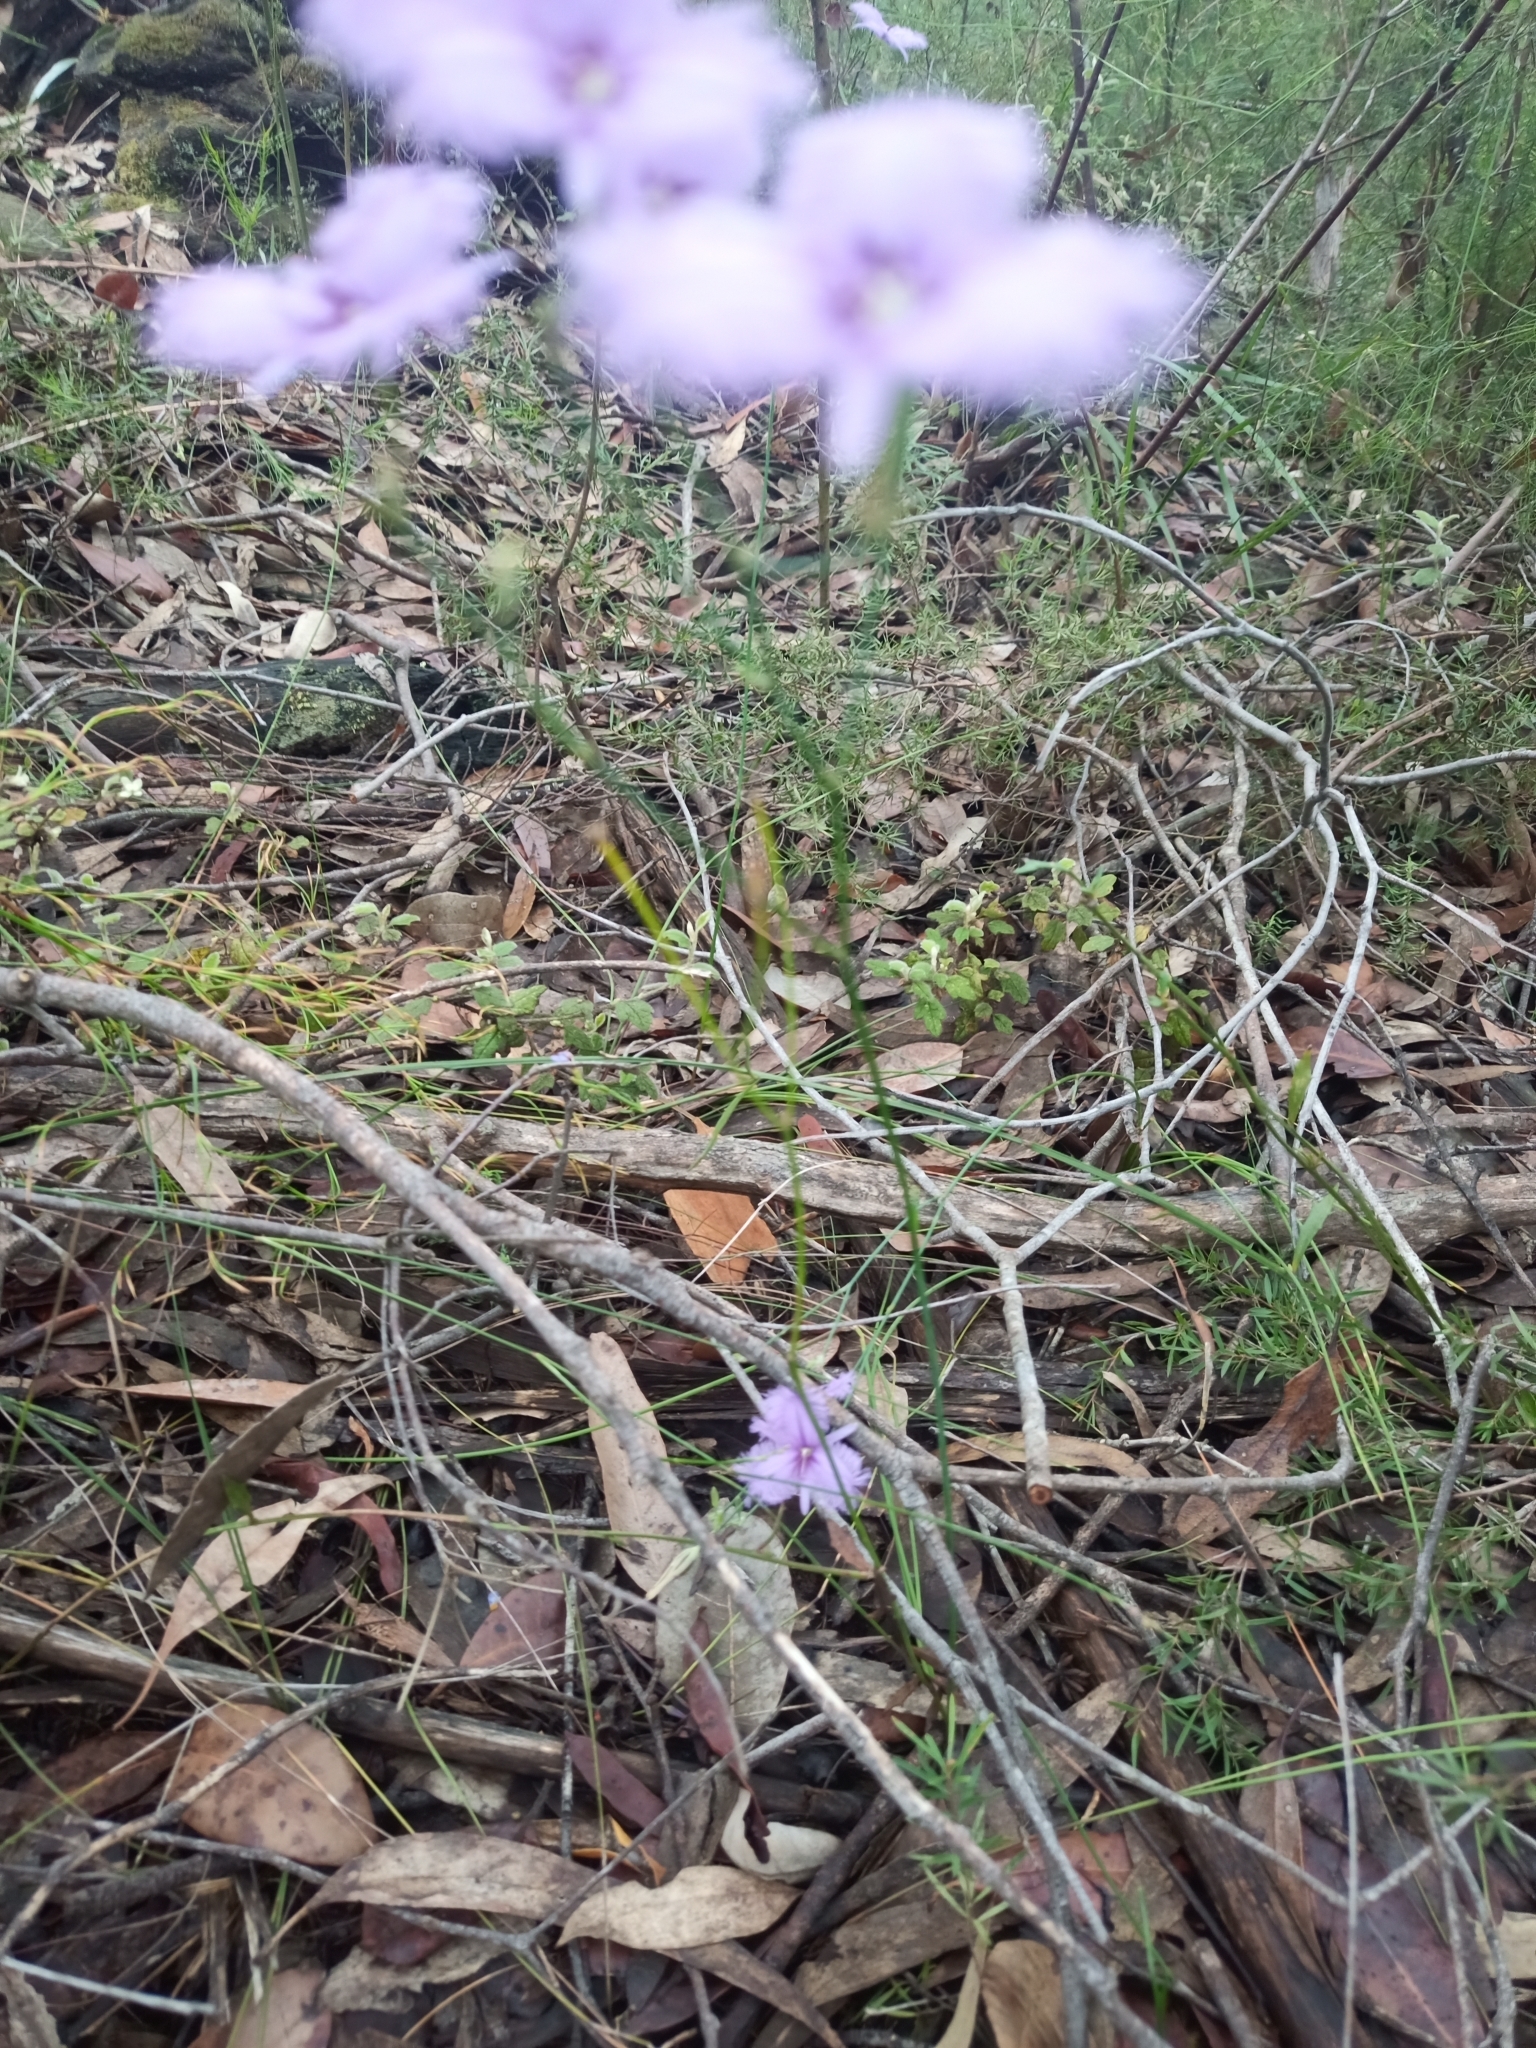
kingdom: Plantae
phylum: Tracheophyta
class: Liliopsida
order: Asparagales
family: Asparagaceae
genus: Thysanotus
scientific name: Thysanotus tuberosus
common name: Common fringed-lily
